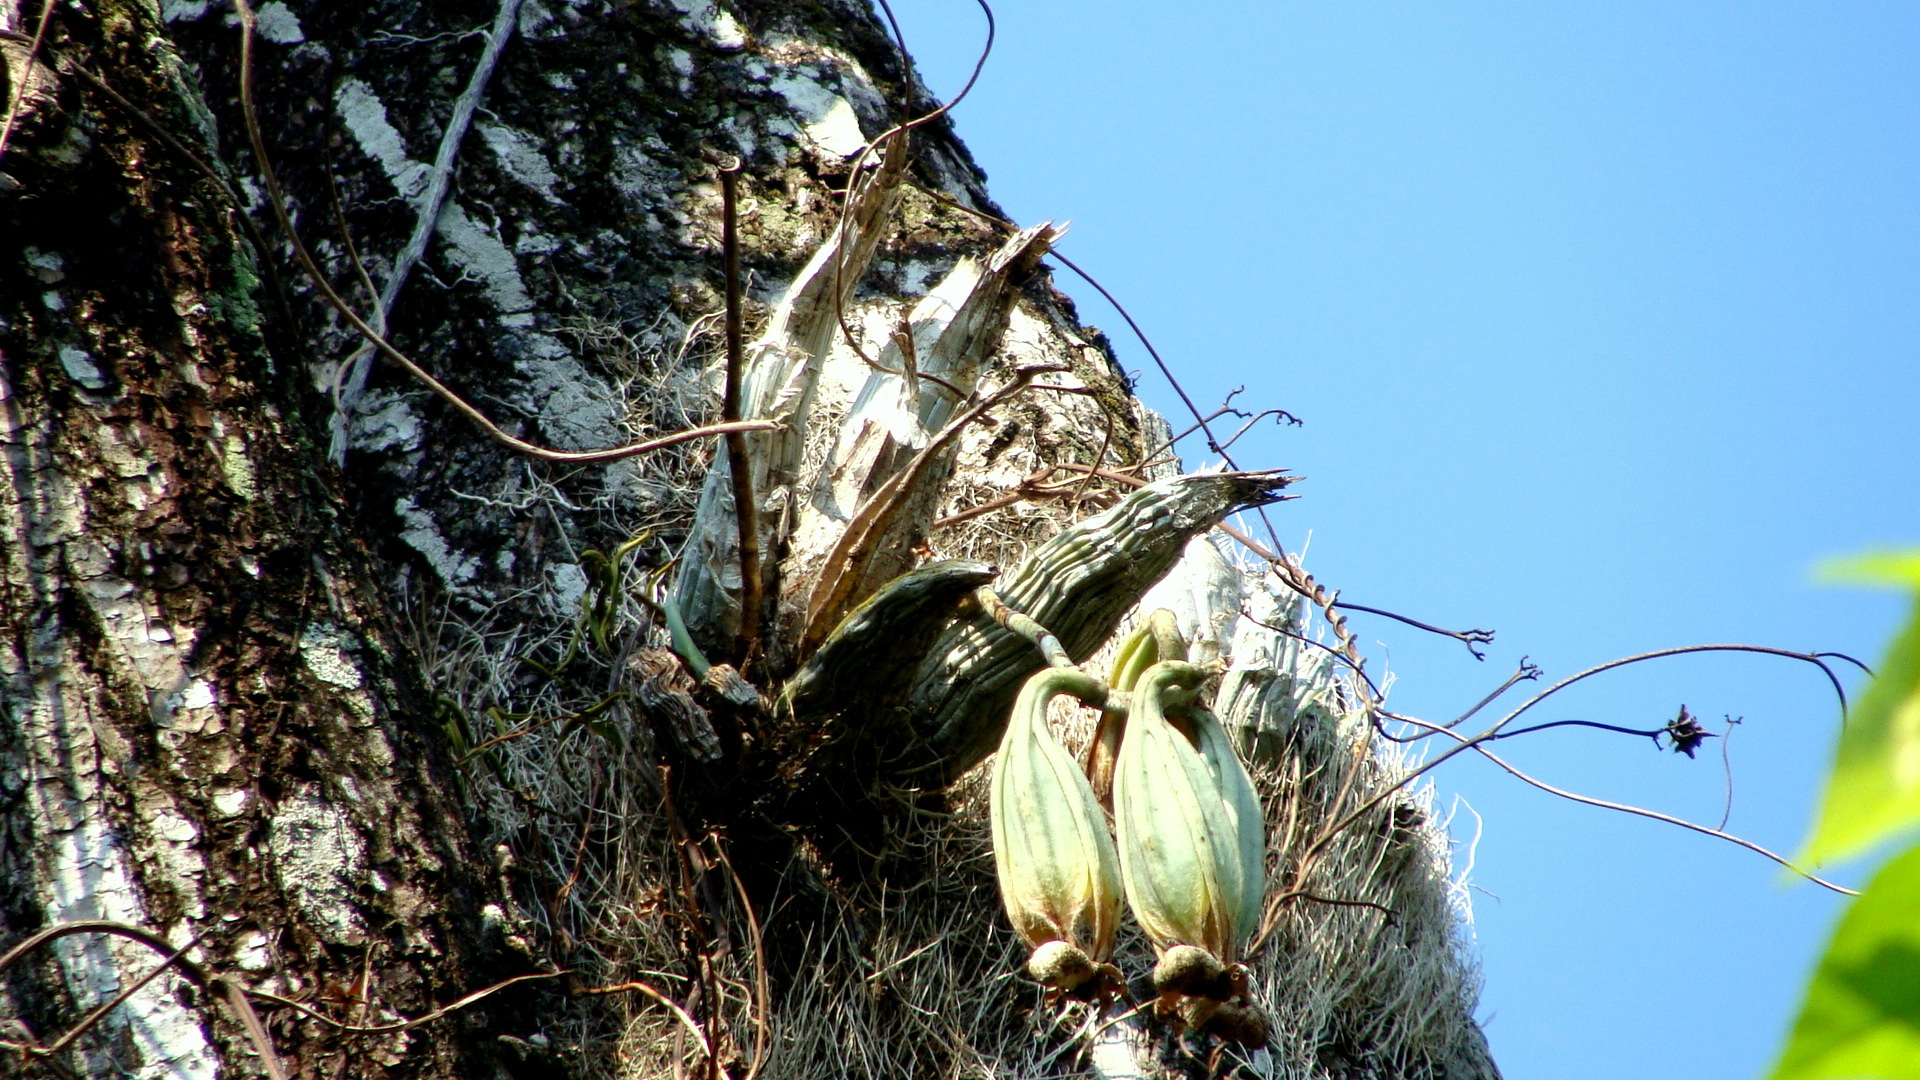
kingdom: Plantae
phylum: Tracheophyta
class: Liliopsida
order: Asparagales
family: Orchidaceae
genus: Catasetum
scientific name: Catasetum integerrimum
